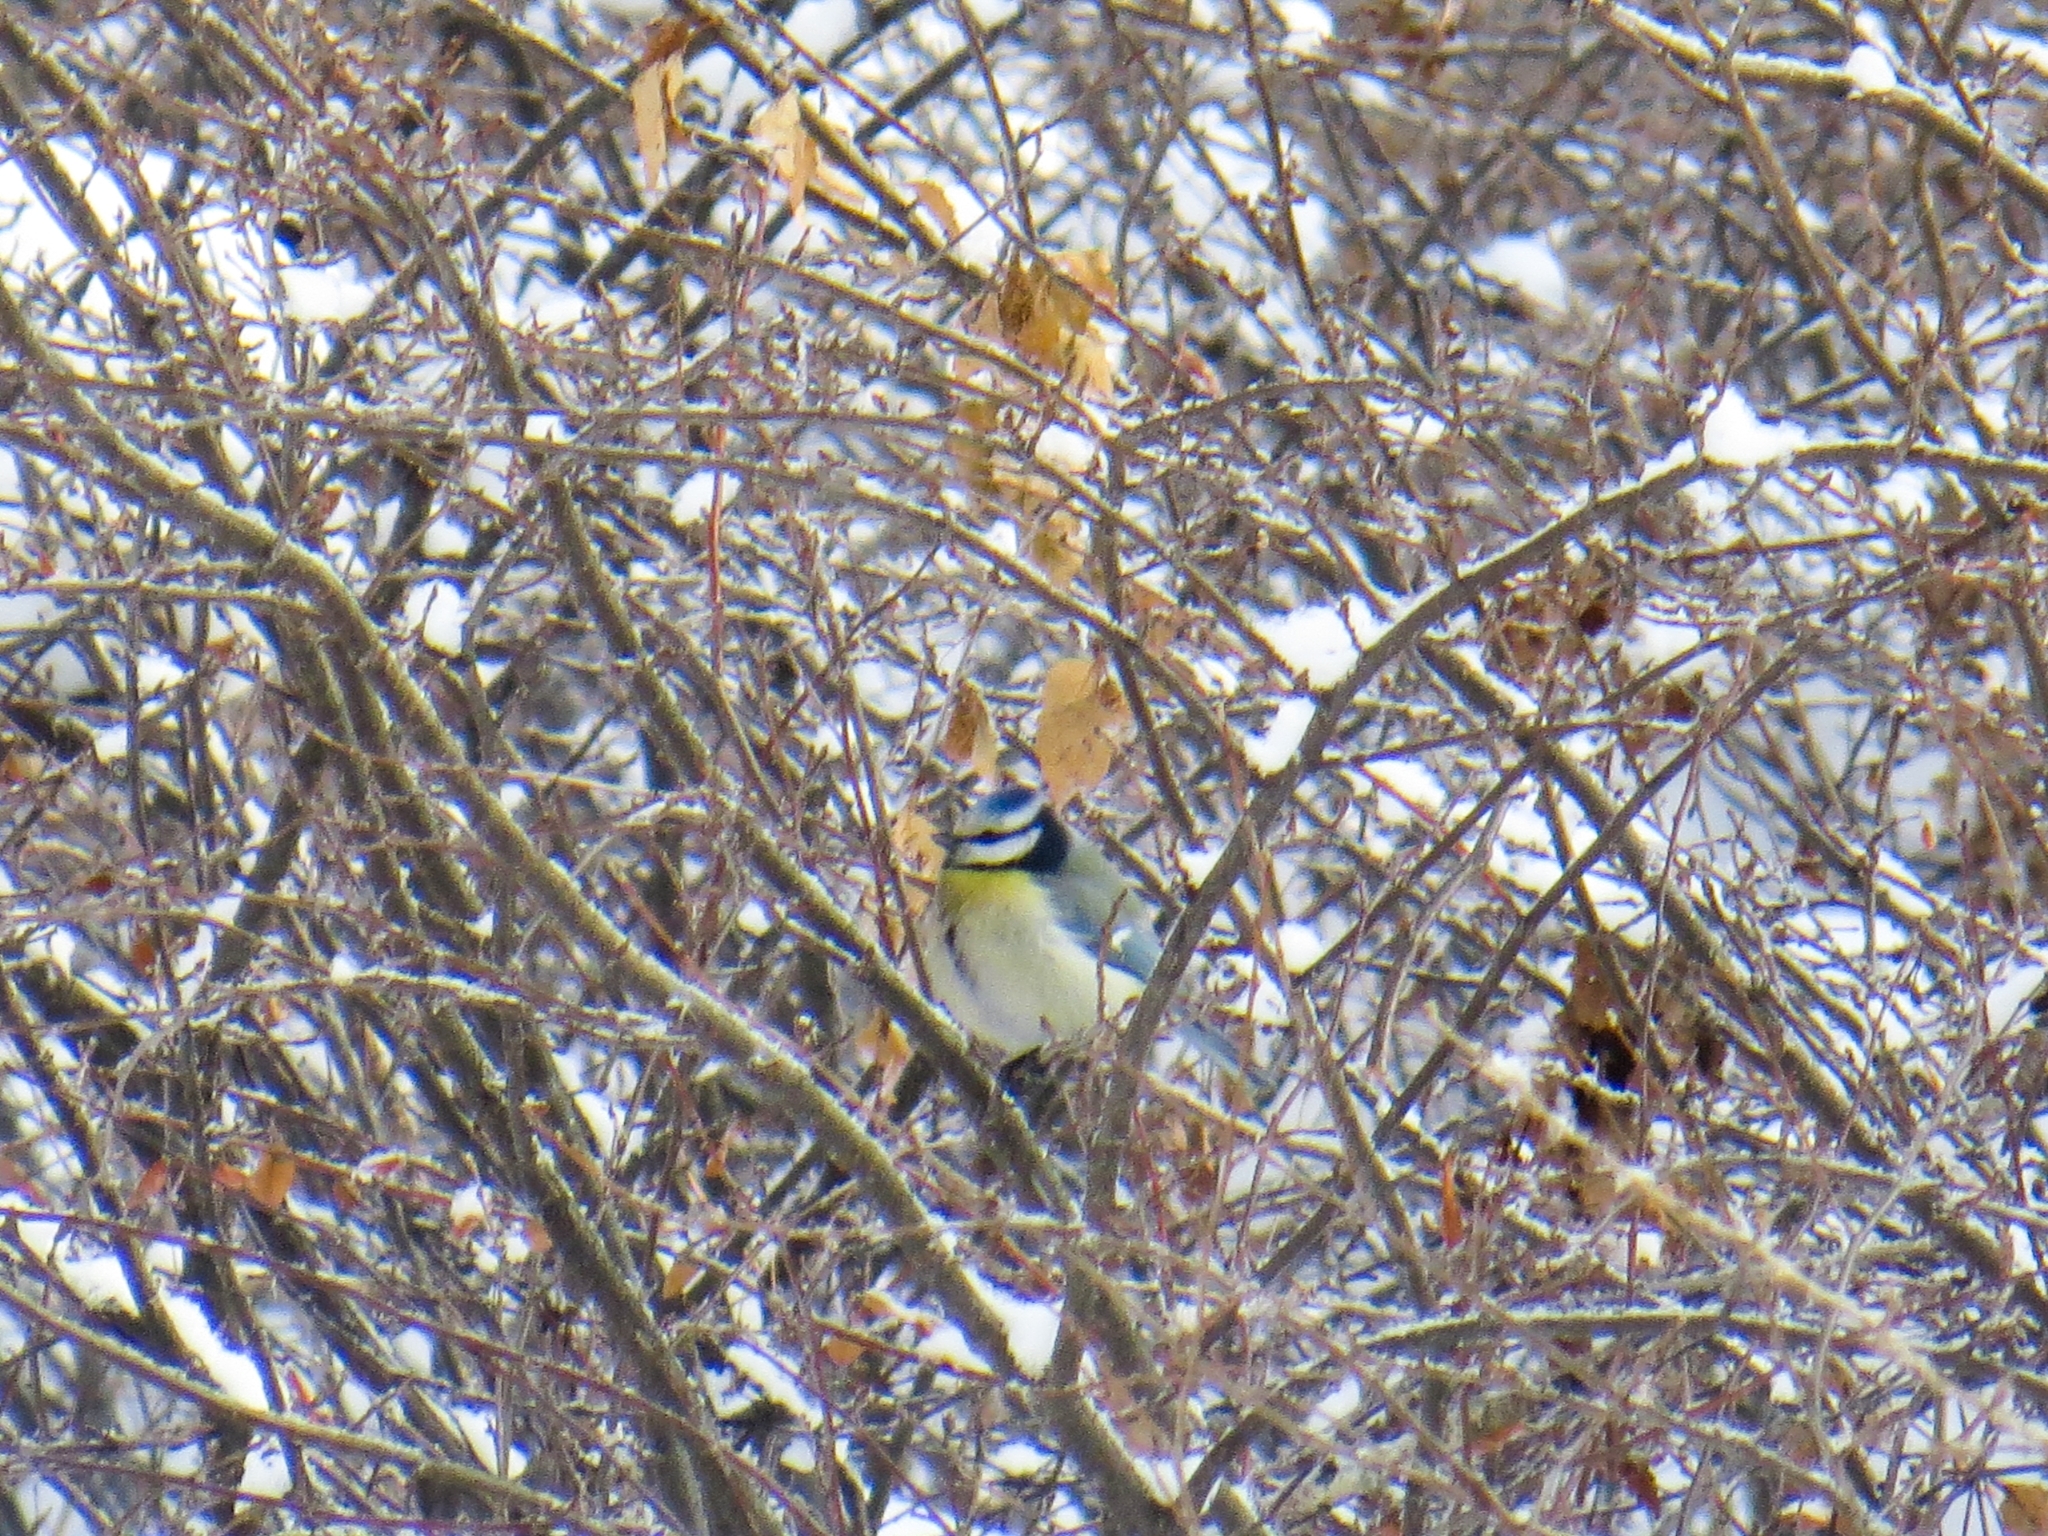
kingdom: Animalia
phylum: Chordata
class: Aves
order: Passeriformes
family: Paridae
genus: Cyanistes
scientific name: Cyanistes caeruleus
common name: Eurasian blue tit
